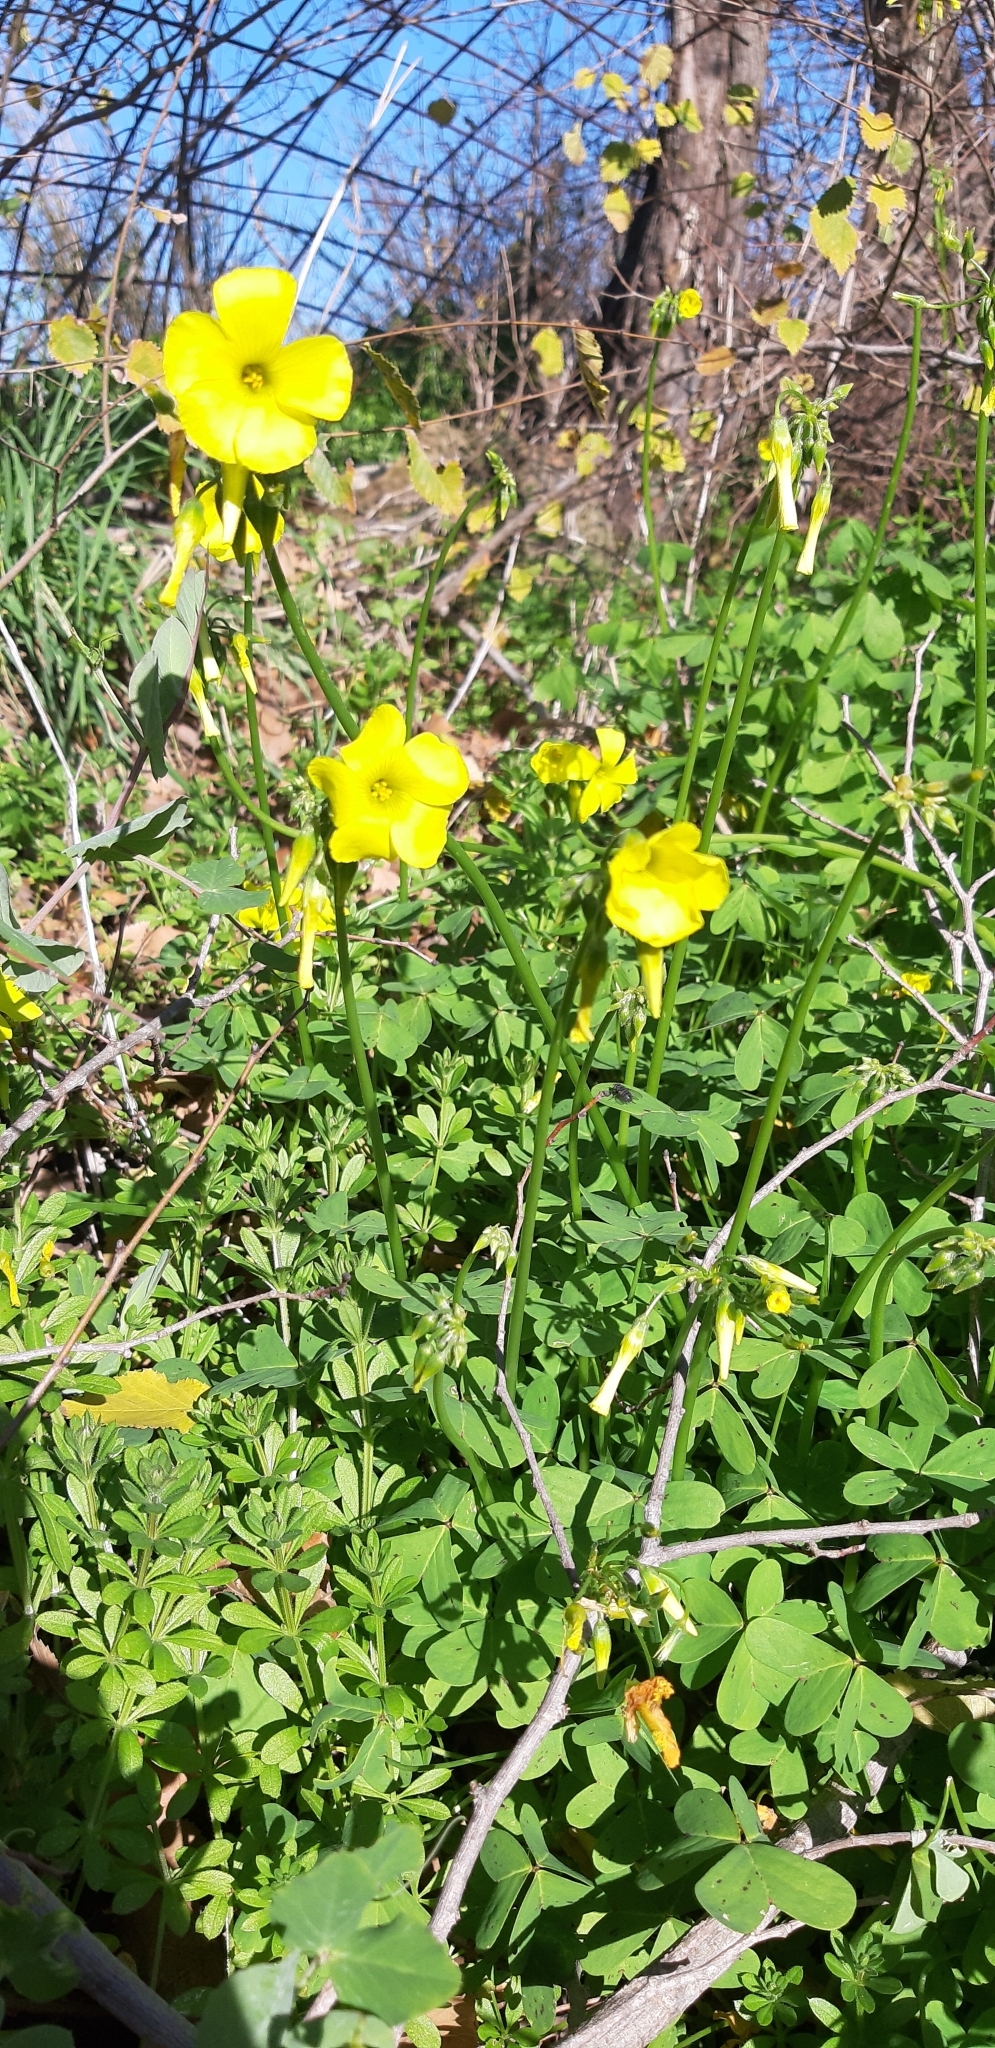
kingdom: Plantae
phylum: Tracheophyta
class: Magnoliopsida
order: Oxalidales
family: Oxalidaceae
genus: Oxalis
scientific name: Oxalis pes-caprae
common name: Bermuda-buttercup
